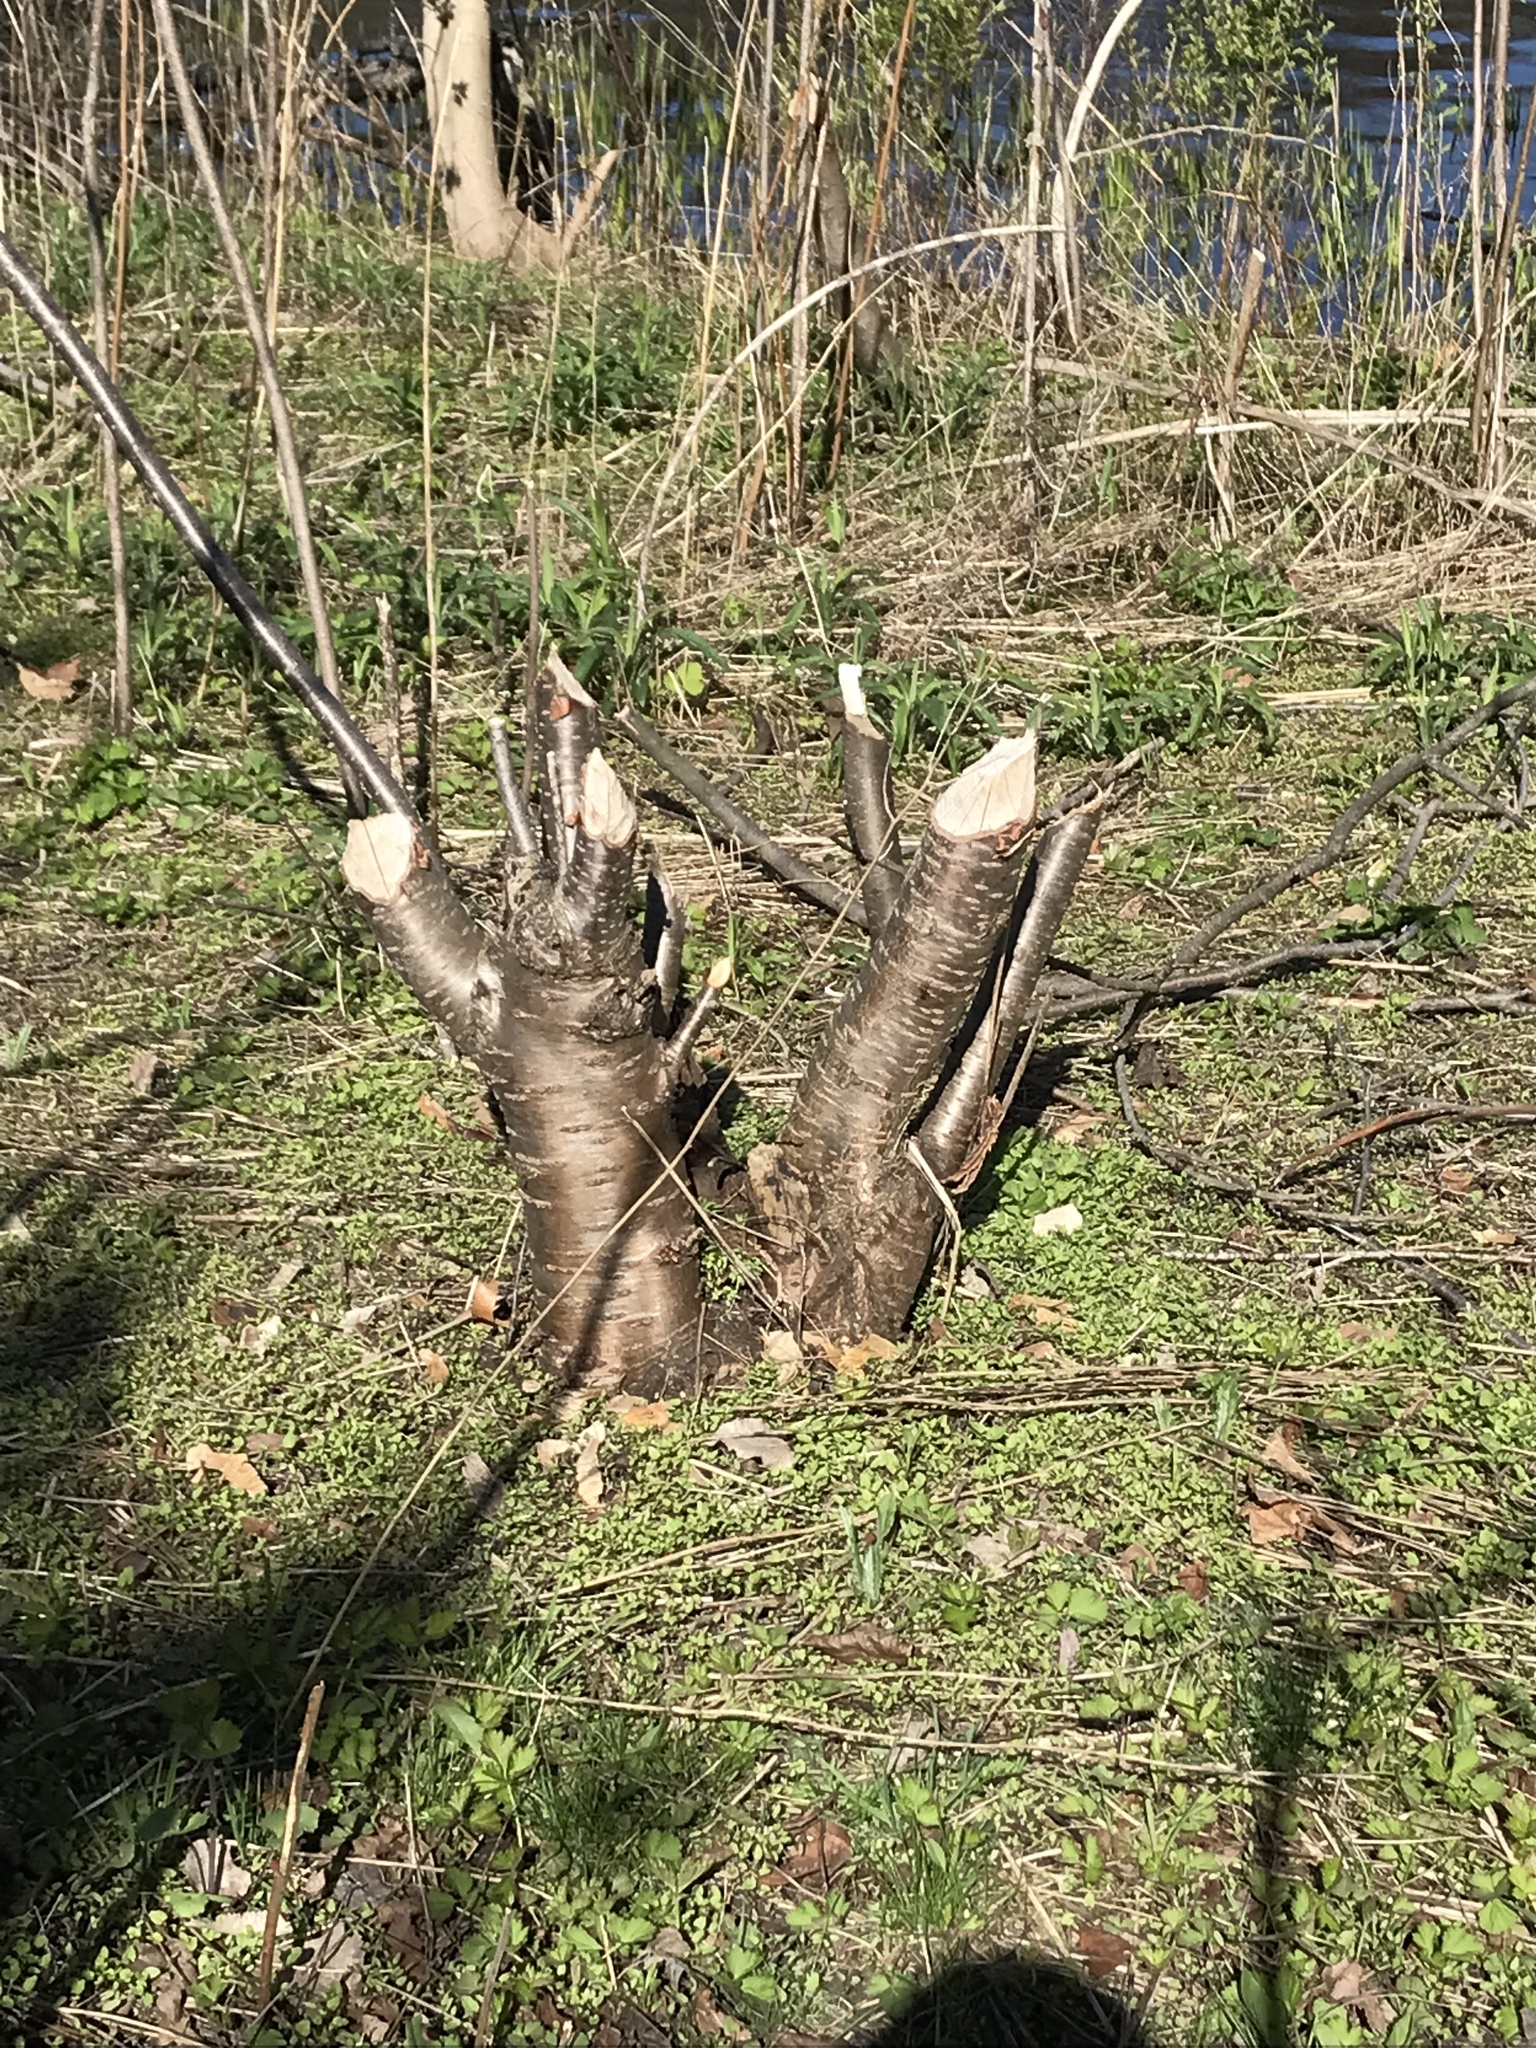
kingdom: Animalia
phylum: Chordata
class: Mammalia
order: Rodentia
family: Castoridae
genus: Castor
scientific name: Castor canadensis
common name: American beaver
